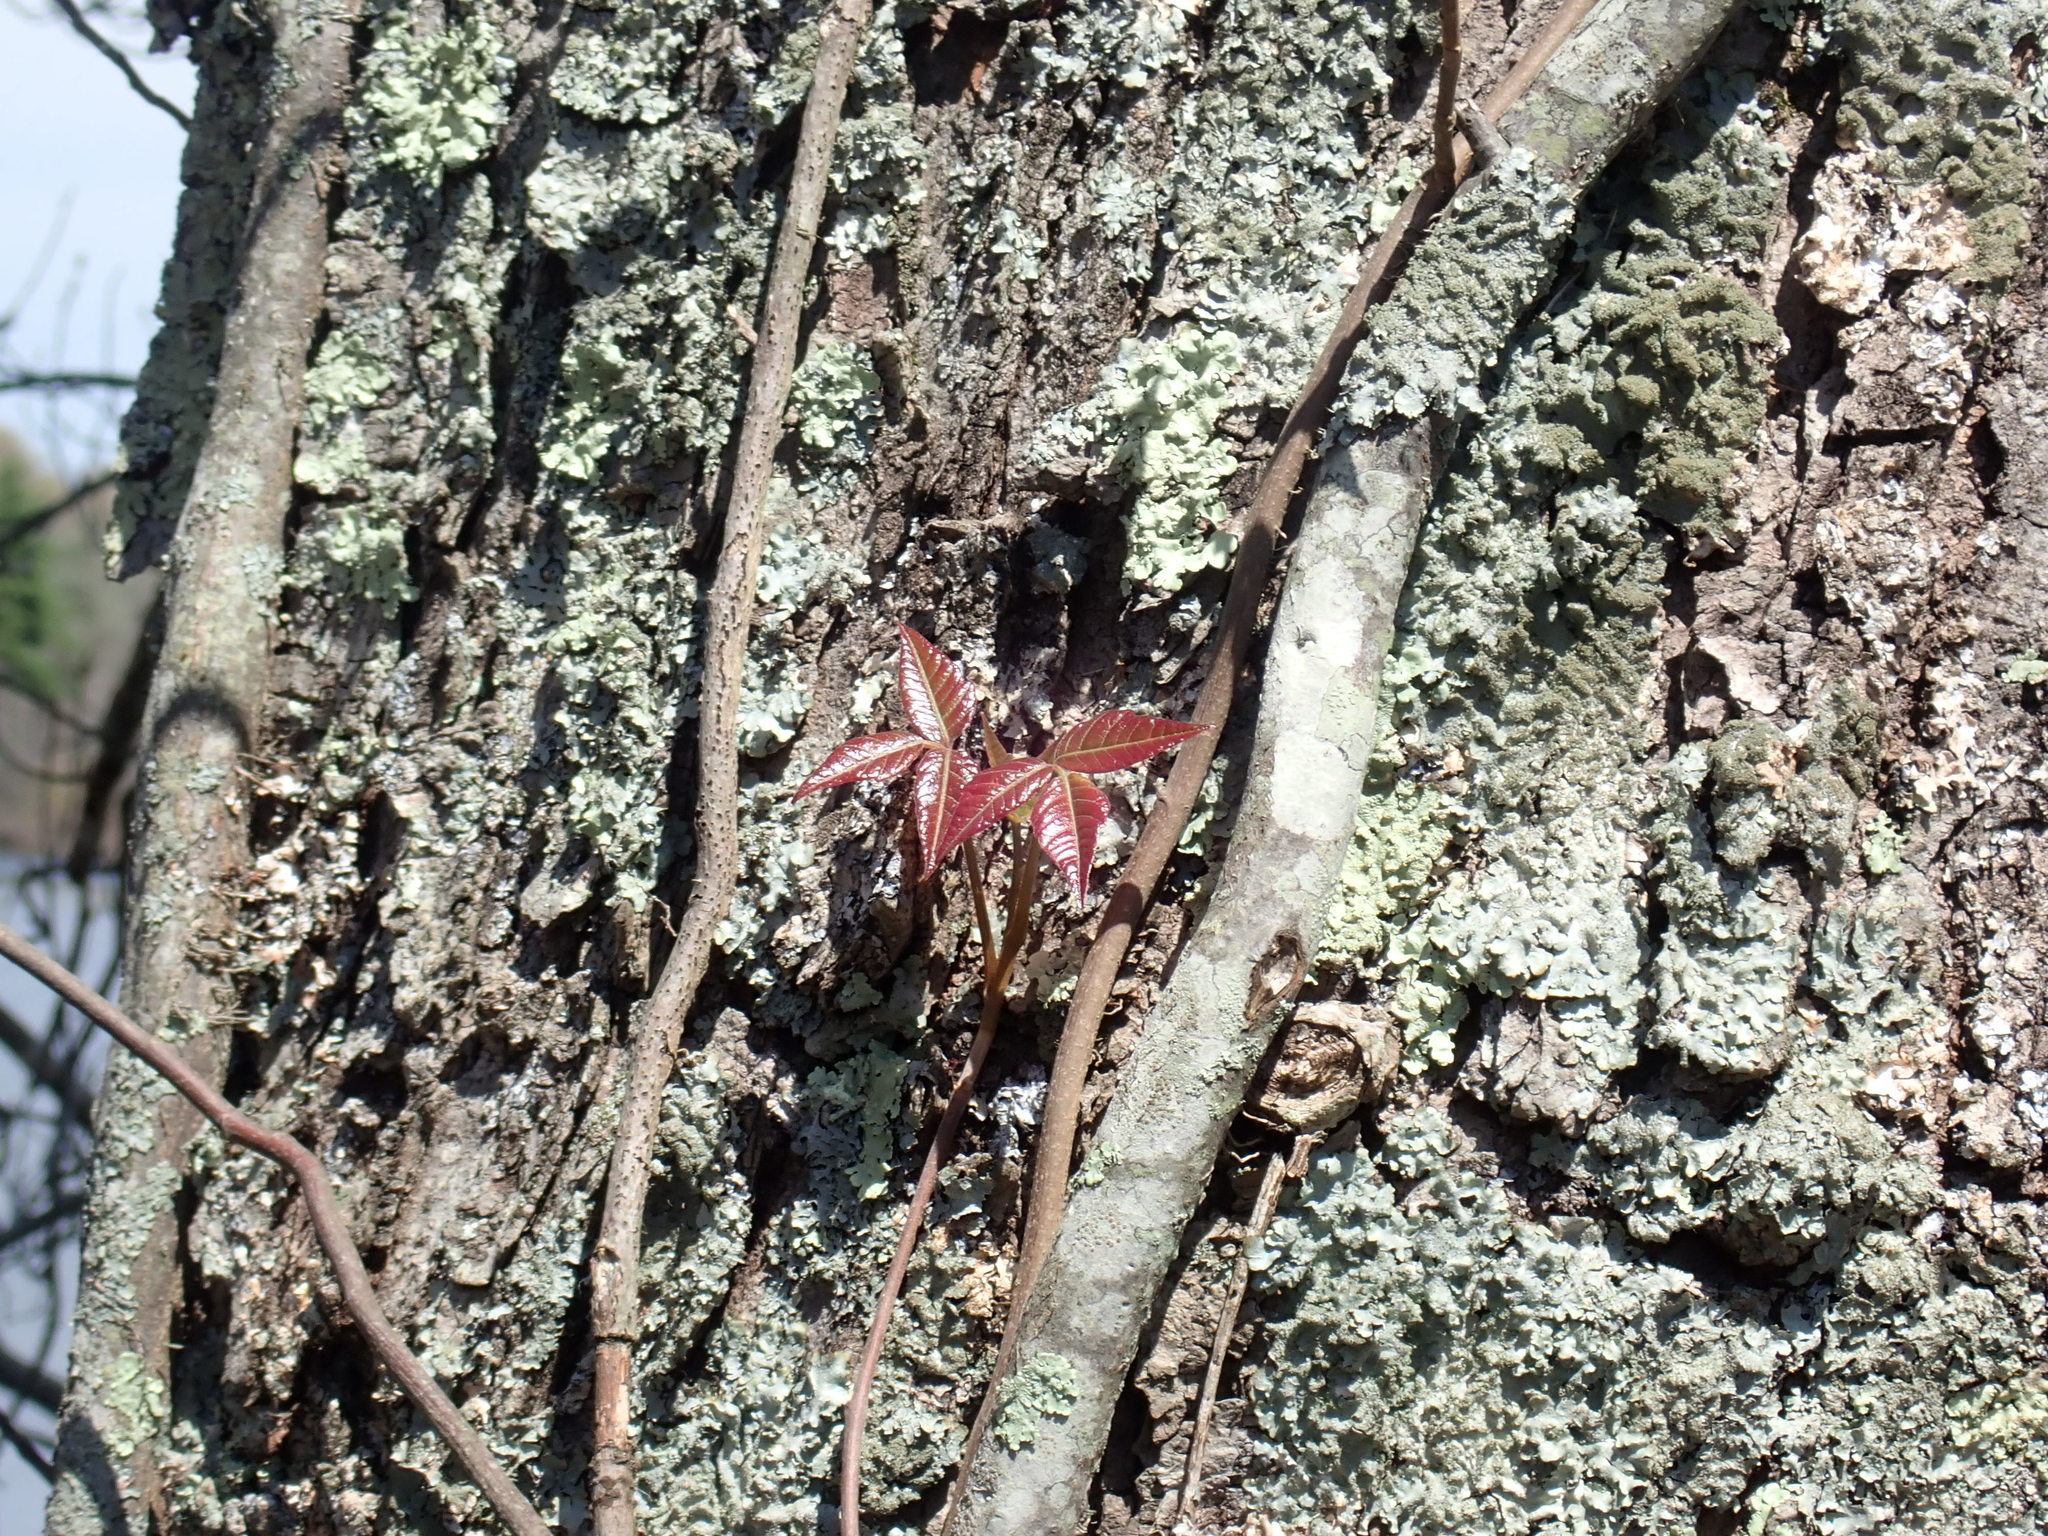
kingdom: Plantae
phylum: Tracheophyta
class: Magnoliopsida
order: Sapindales
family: Anacardiaceae
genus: Toxicodendron
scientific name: Toxicodendron radicans
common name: Poison ivy
